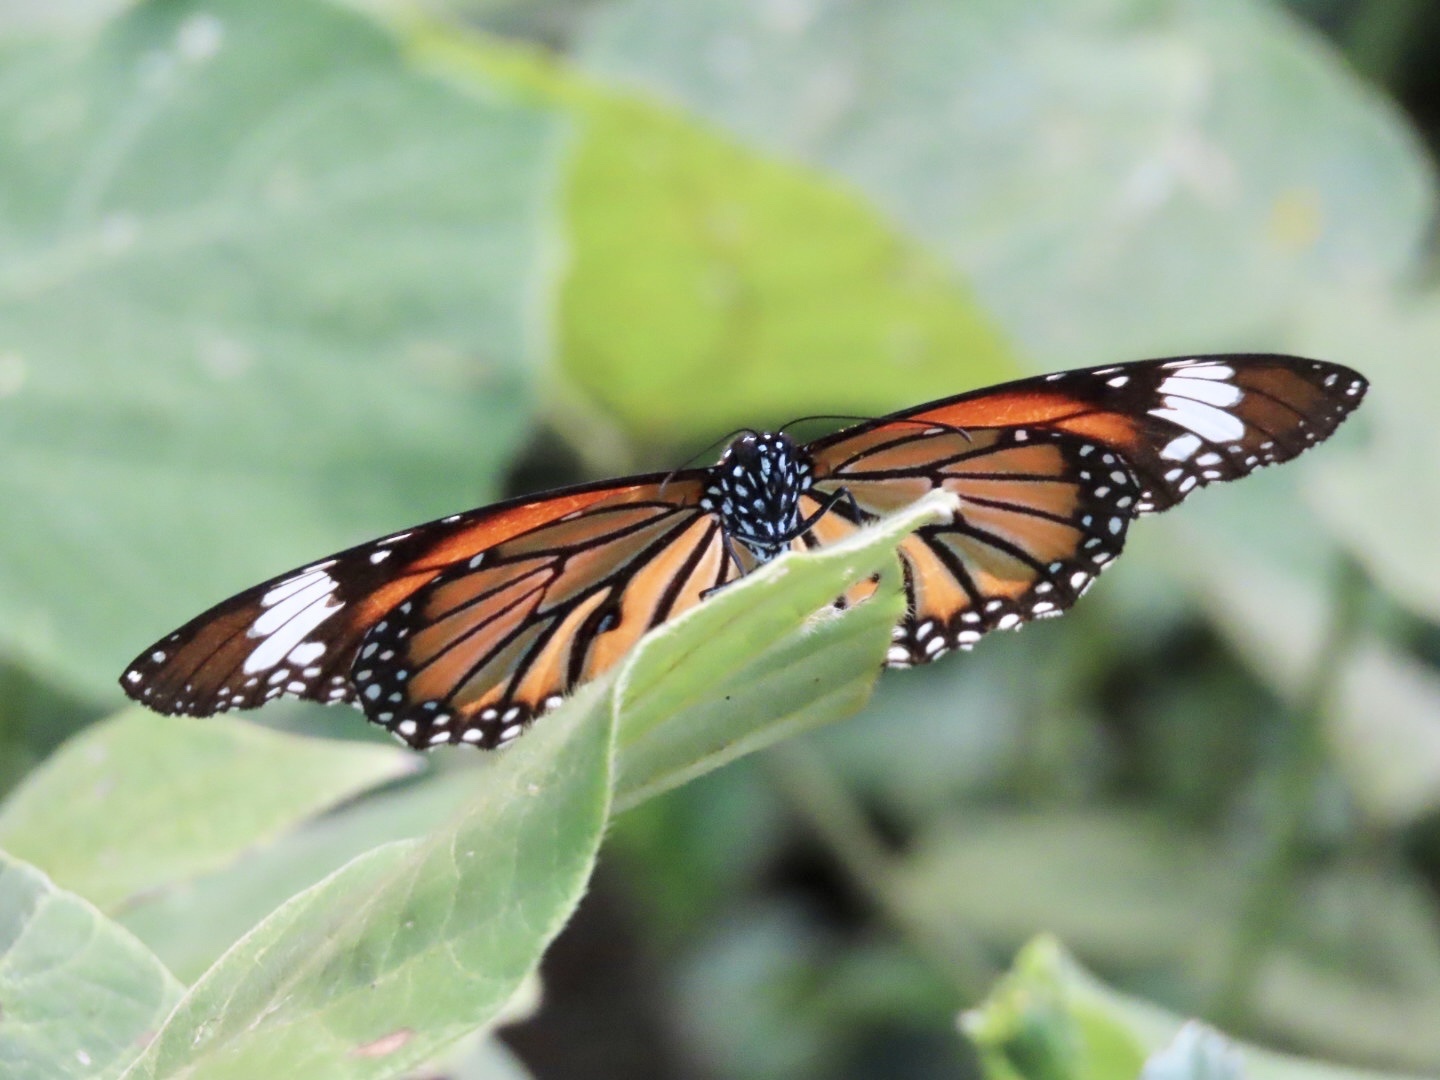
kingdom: Animalia
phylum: Arthropoda
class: Insecta
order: Lepidoptera
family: Nymphalidae
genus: Danaus
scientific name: Danaus genutia
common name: Common tiger butterfly
